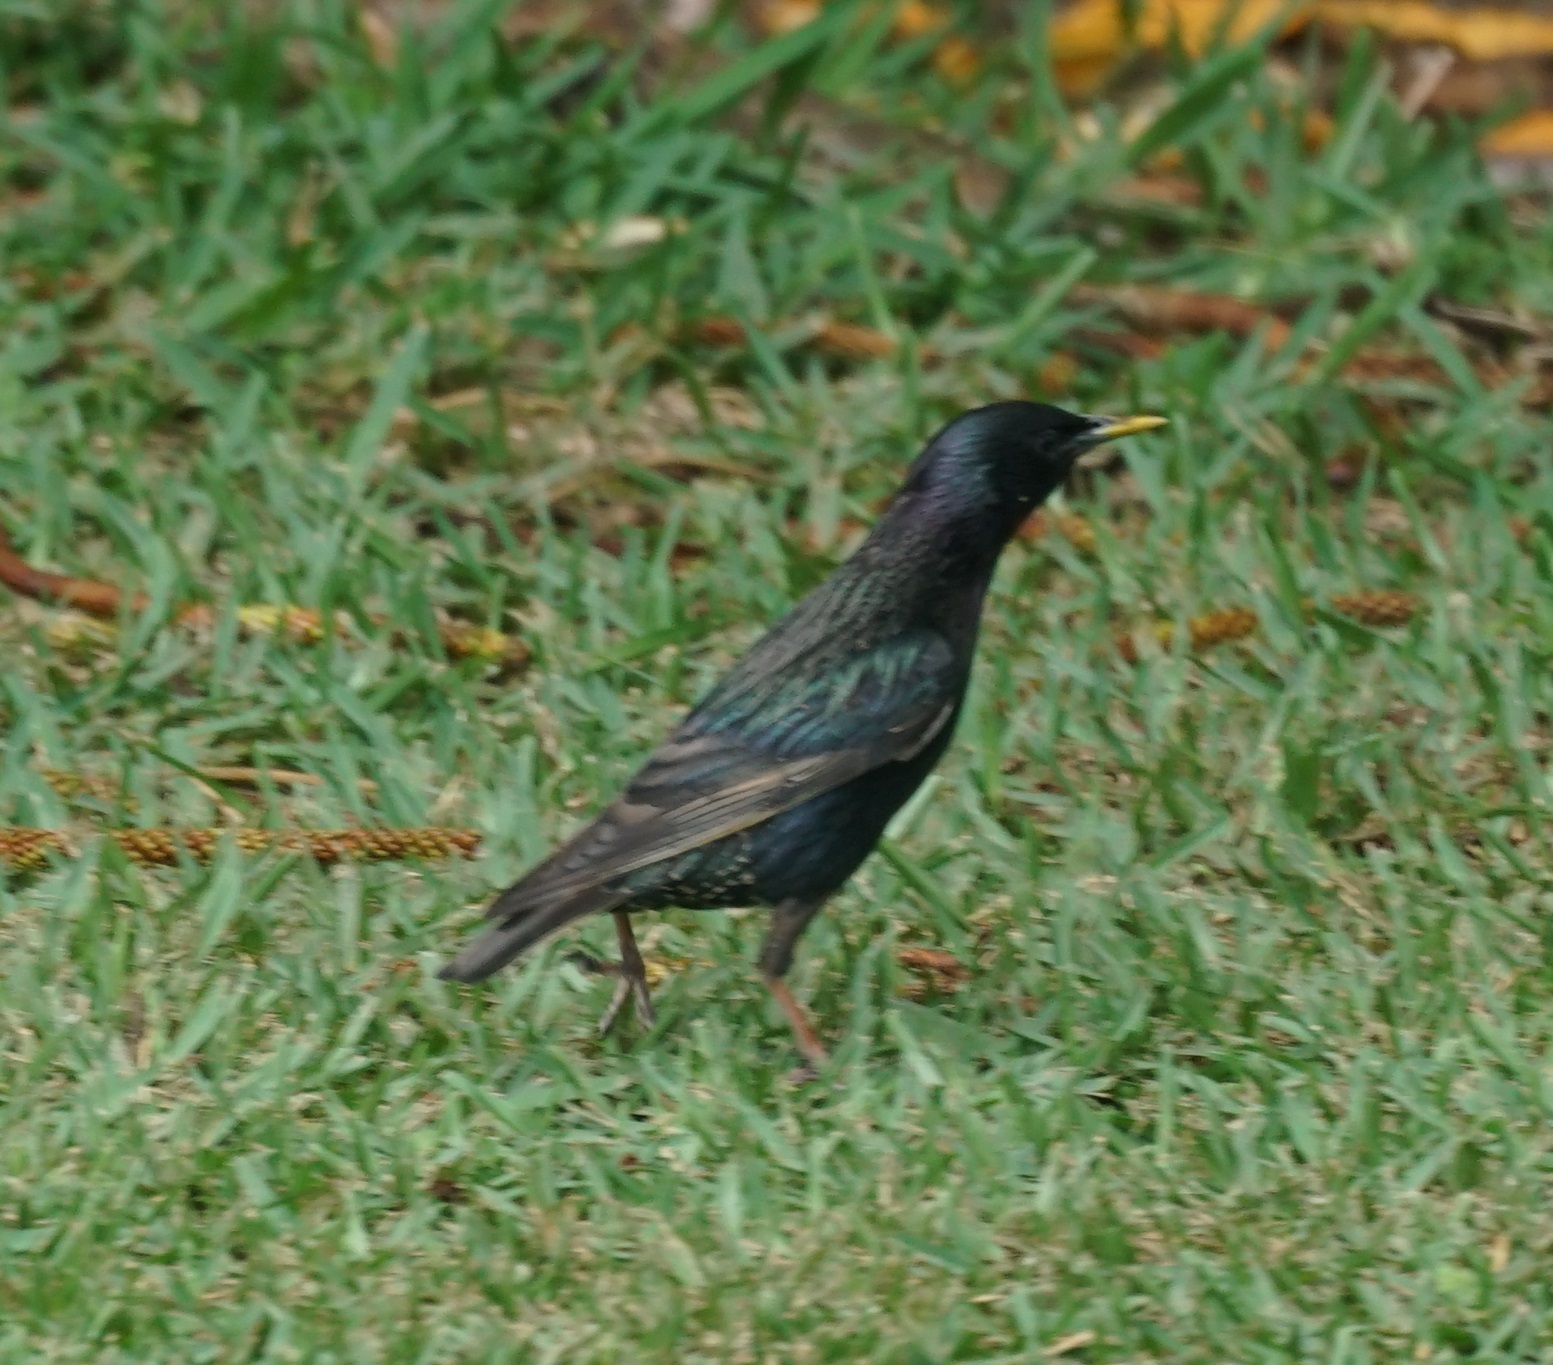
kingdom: Animalia
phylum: Chordata
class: Aves
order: Passeriformes
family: Sturnidae
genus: Sturnus
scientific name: Sturnus vulgaris
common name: Common starling
